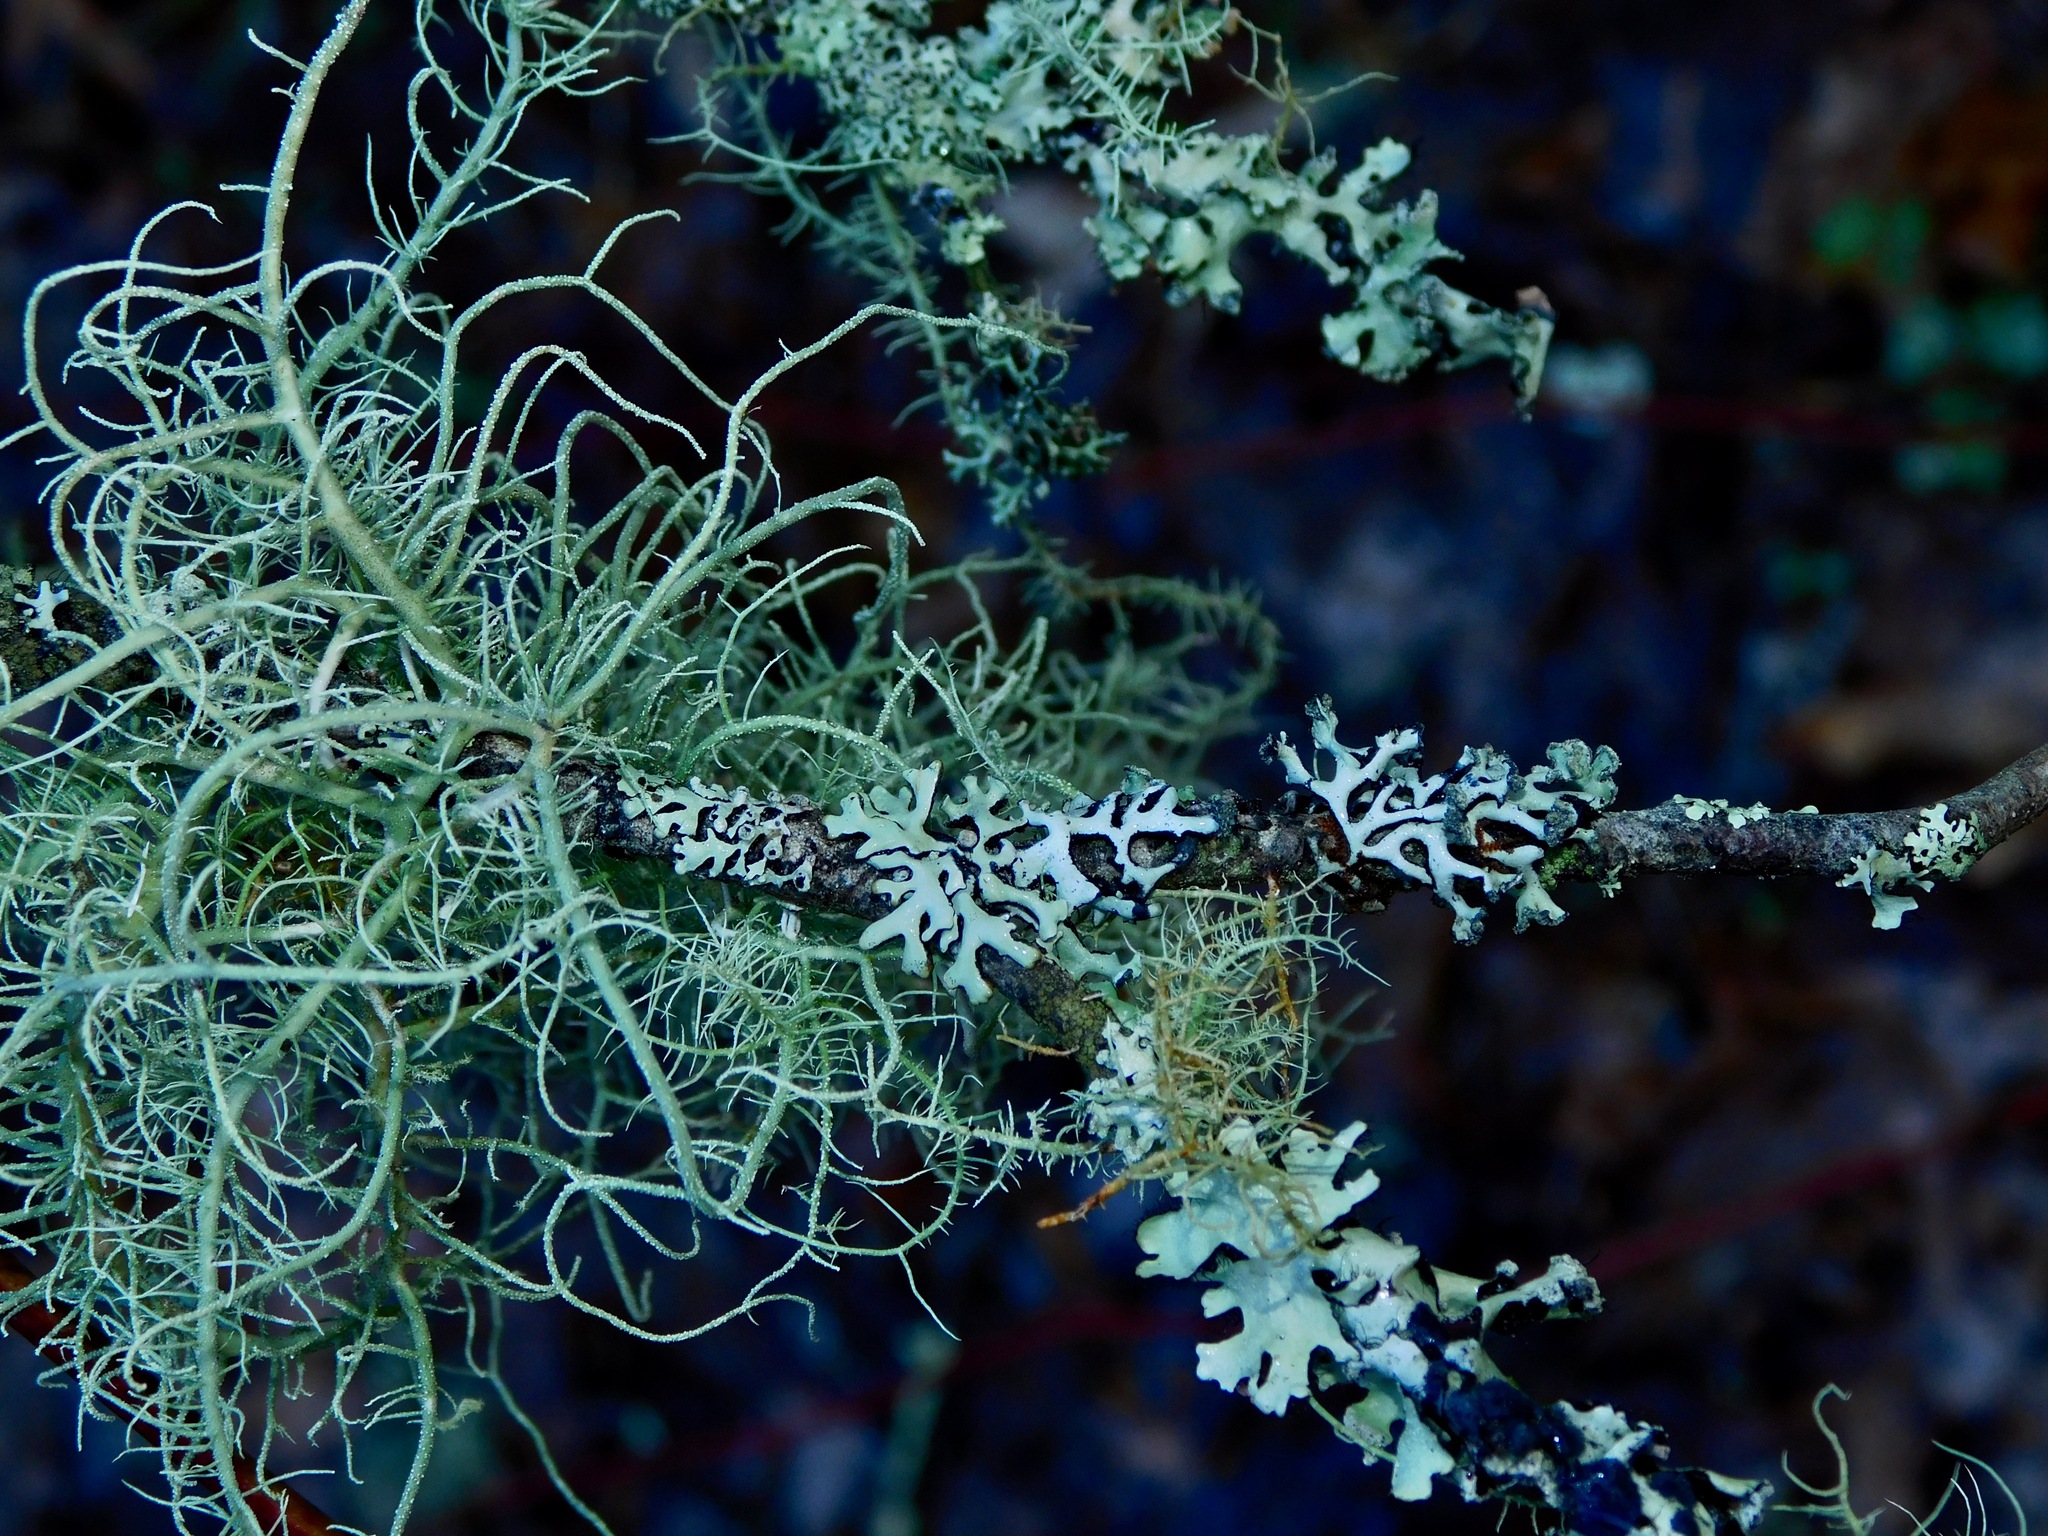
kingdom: Fungi
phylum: Ascomycota
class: Lecanoromycetes
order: Lecanorales
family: Parmeliaceae
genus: Hypogymnia
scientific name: Hypogymnia tubulosa
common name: Powder-headed tube lichen
